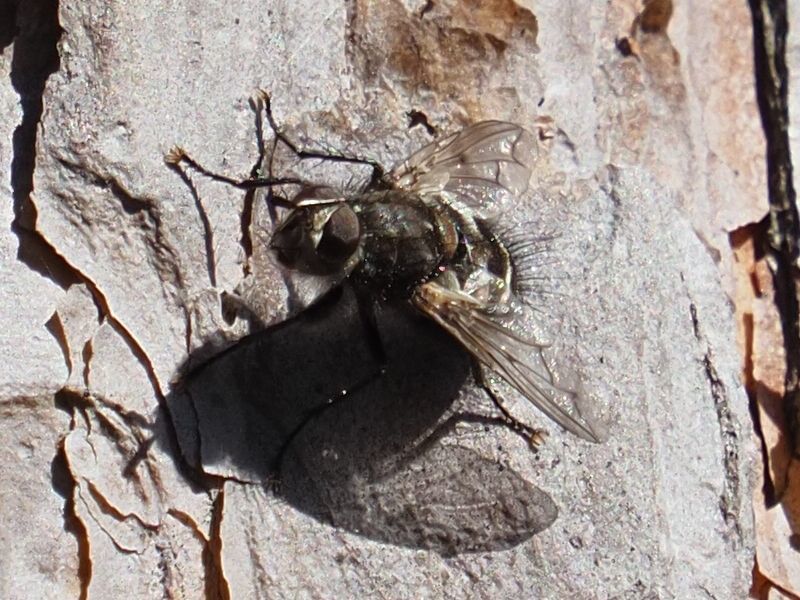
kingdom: Animalia
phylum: Arthropoda
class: Insecta
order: Diptera
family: Tachinidae
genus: Panzeria
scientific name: Panzeria puparum
